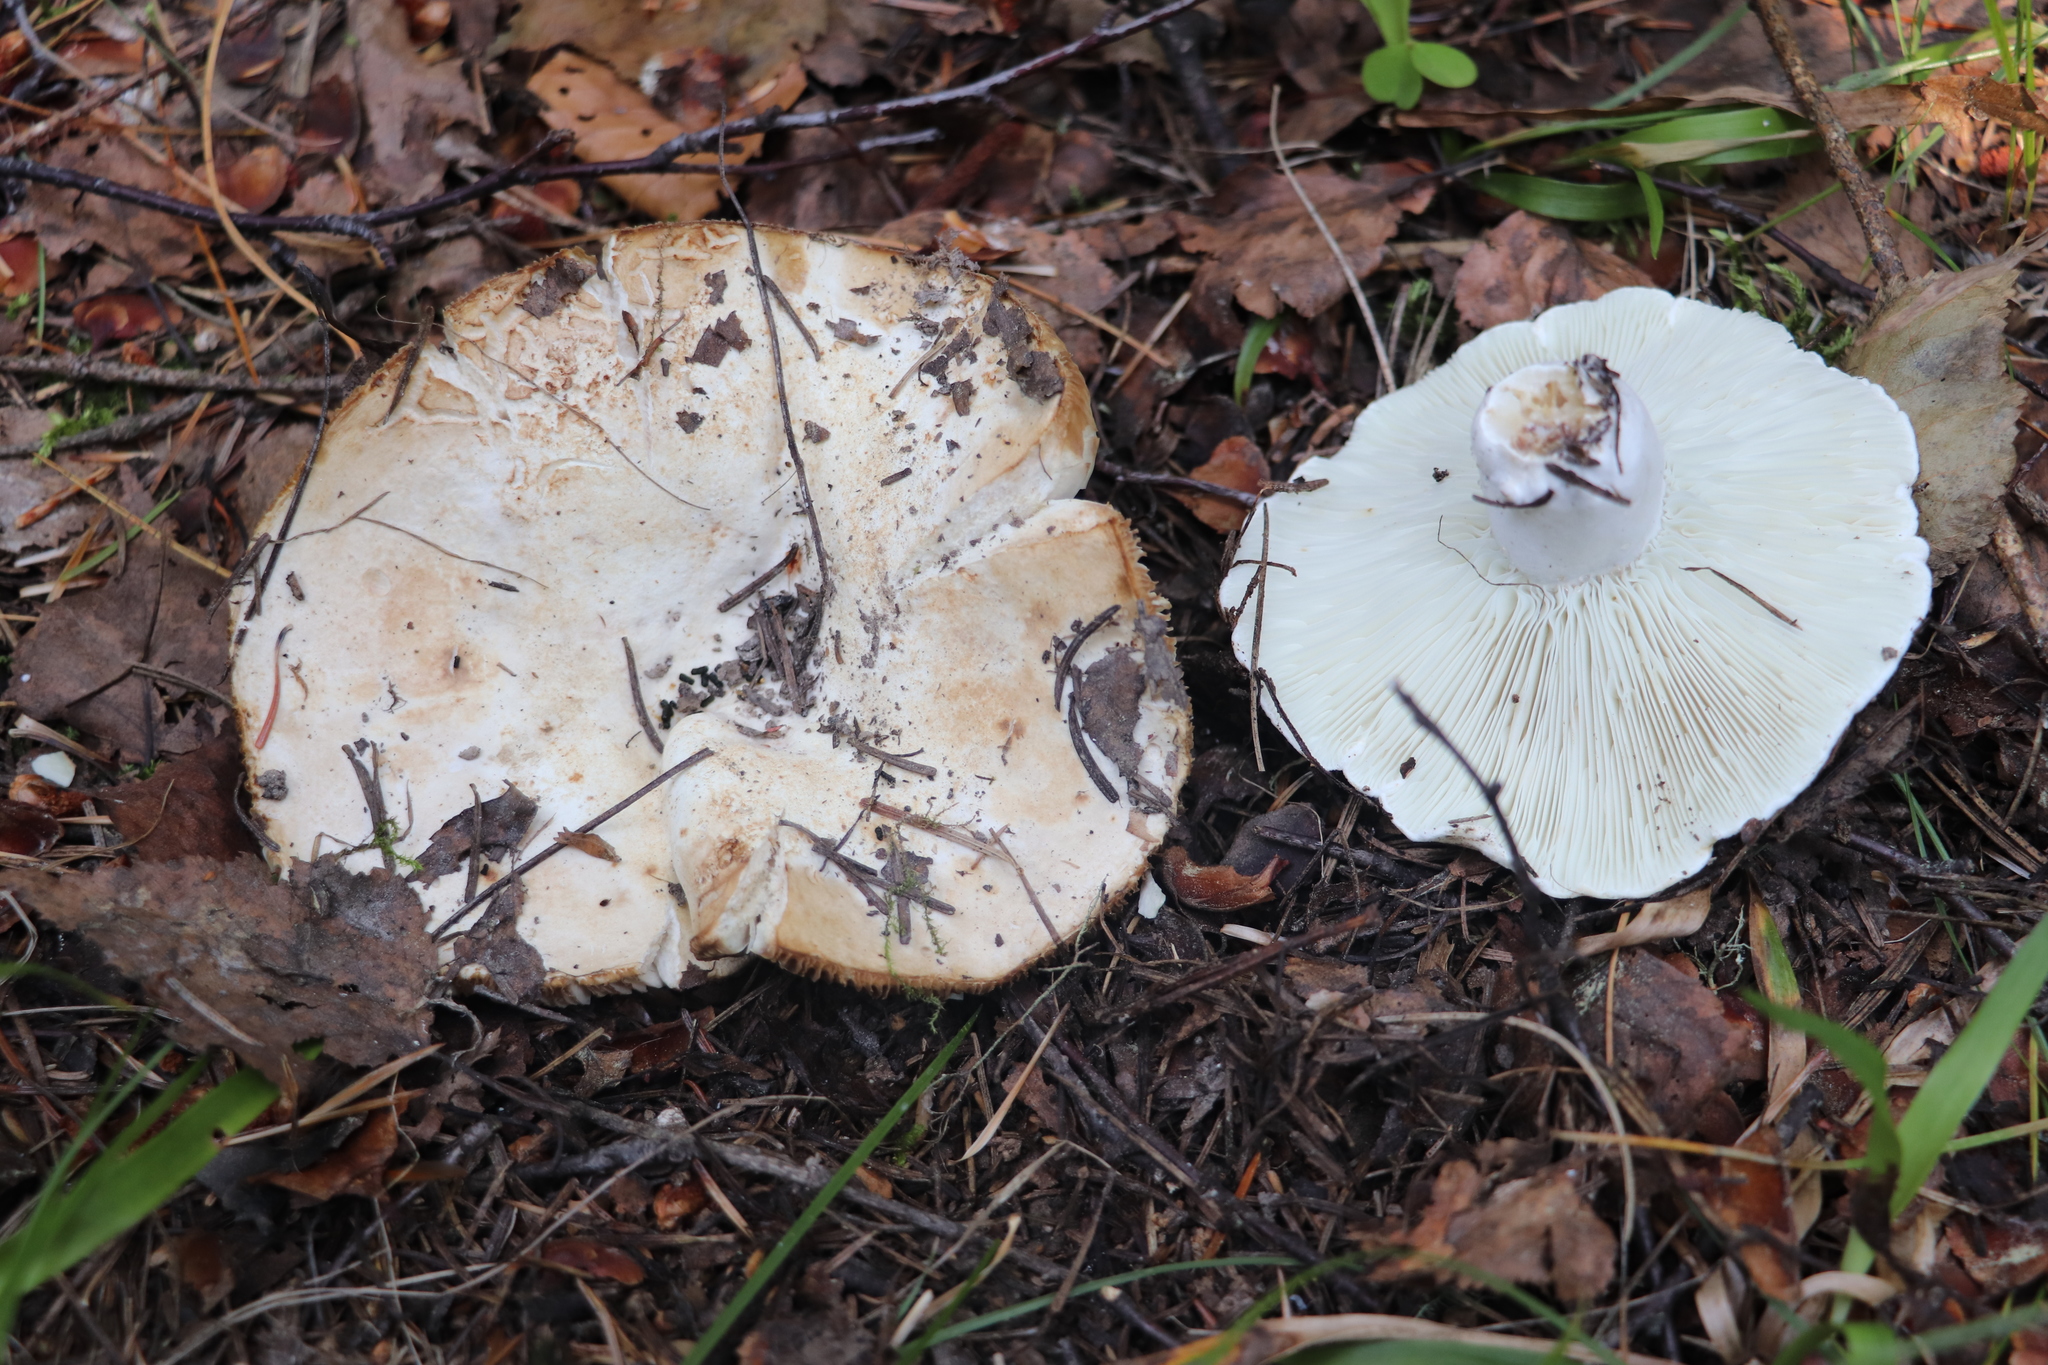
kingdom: Fungi
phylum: Basidiomycota
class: Agaricomycetes
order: Russulales
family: Russulaceae
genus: Russula
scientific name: Russula delica
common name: Milk white brittlegill
